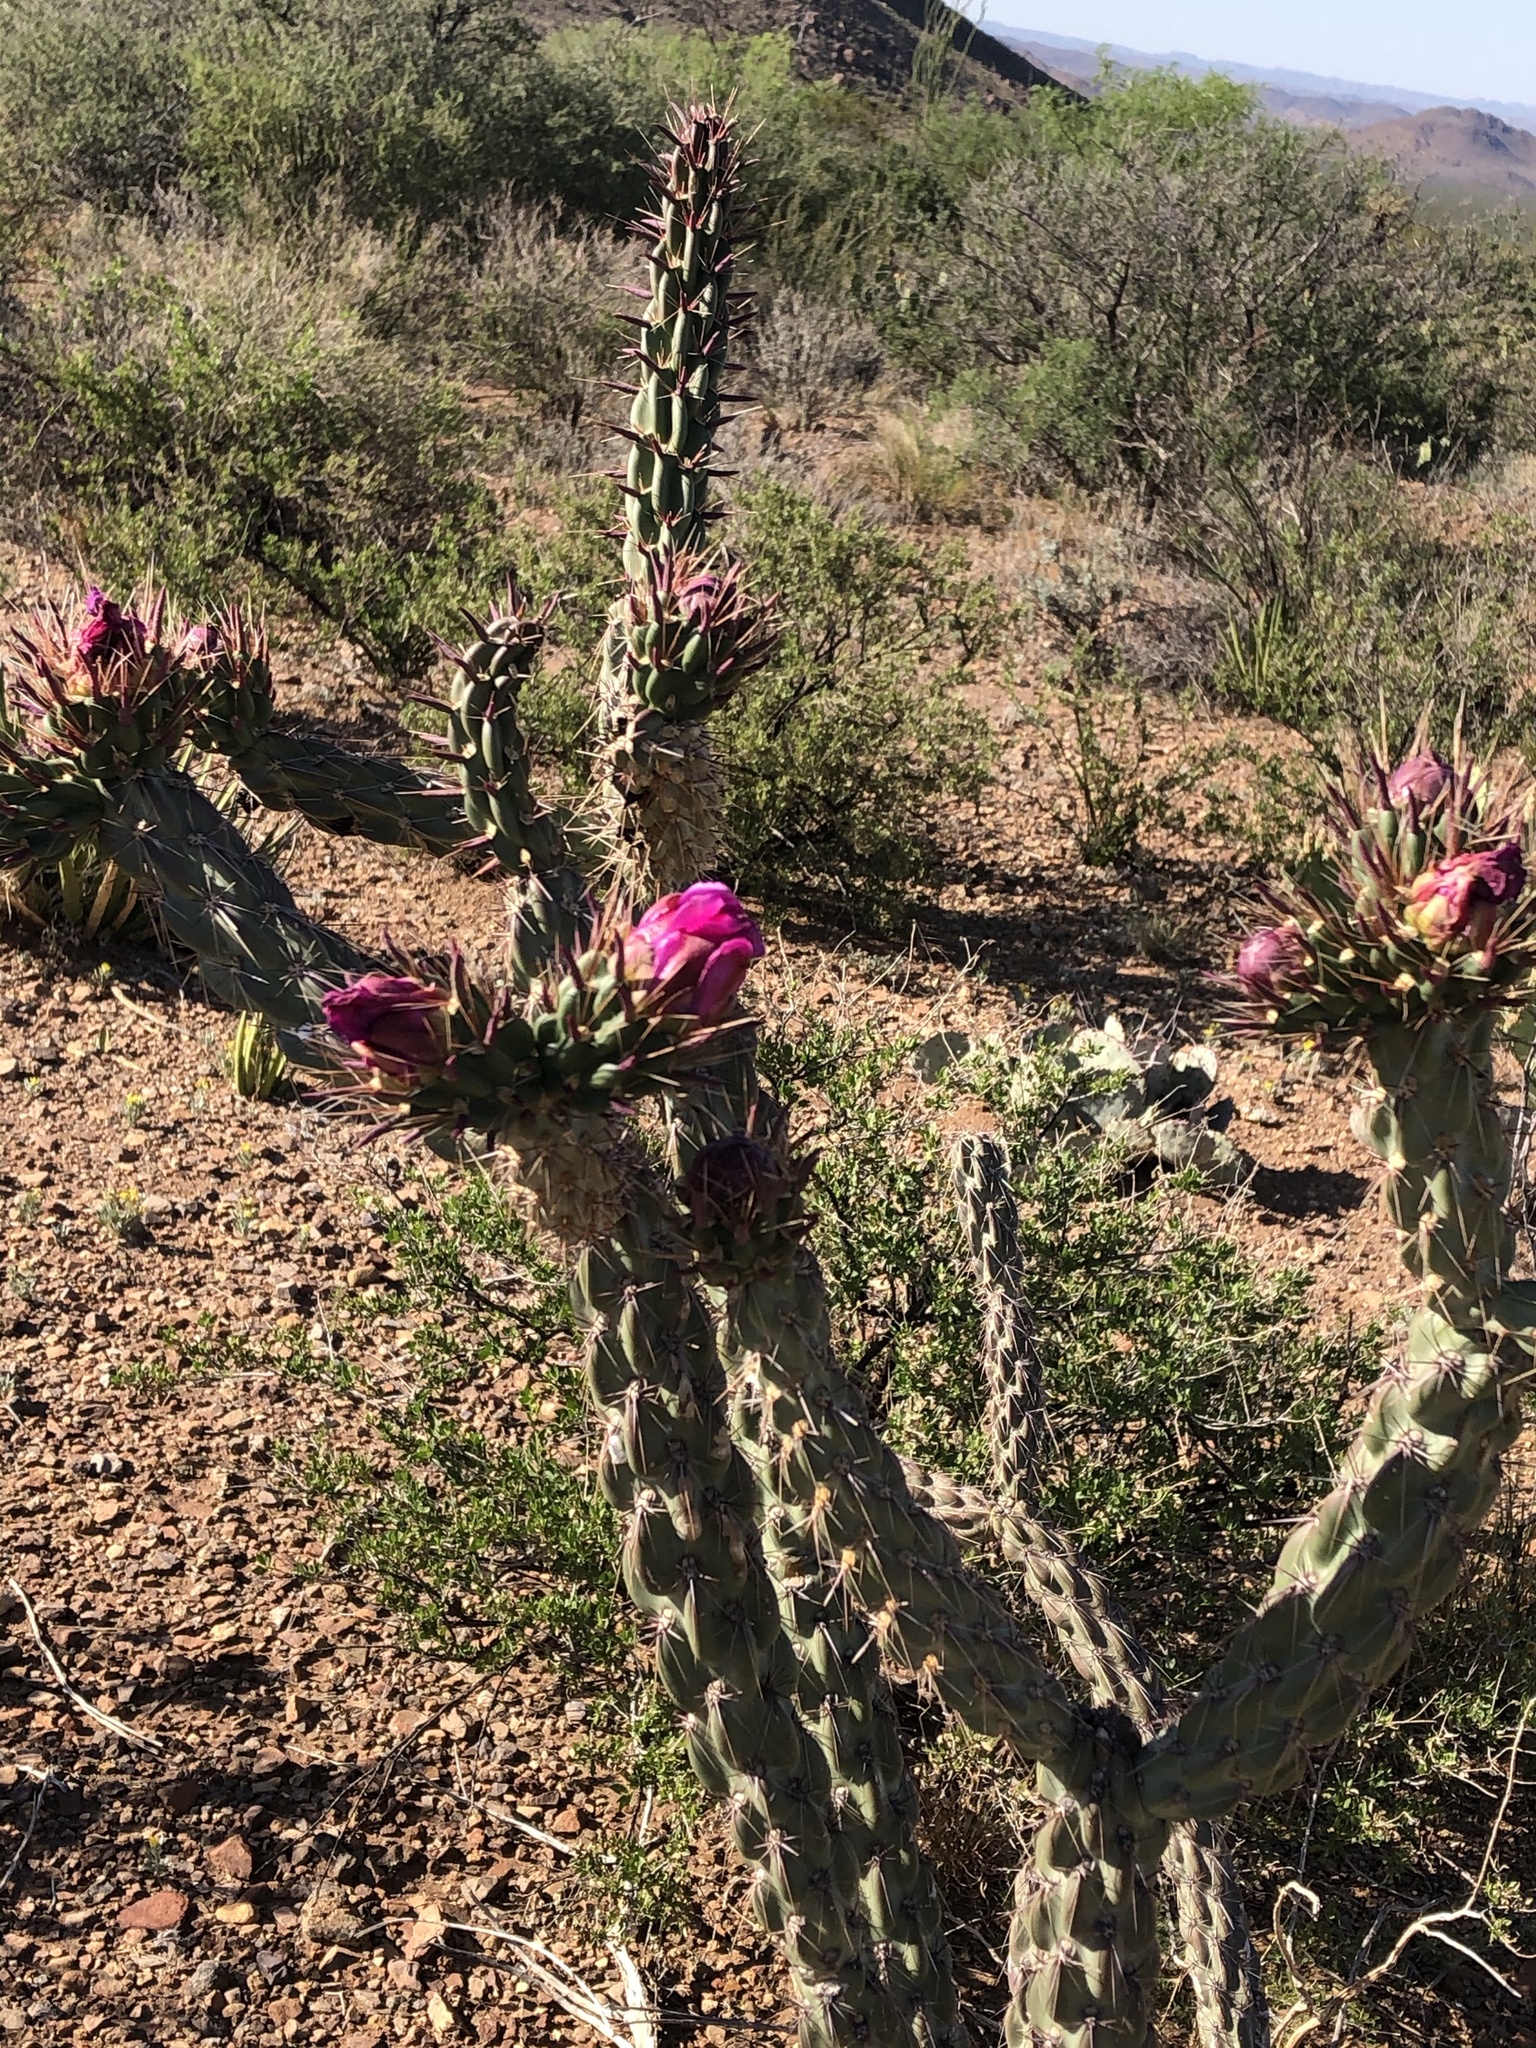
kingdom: Plantae
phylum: Tracheophyta
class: Magnoliopsida
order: Caryophyllales
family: Cactaceae
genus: Cylindropuntia
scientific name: Cylindropuntia imbricata
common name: Candelabrum cactus
